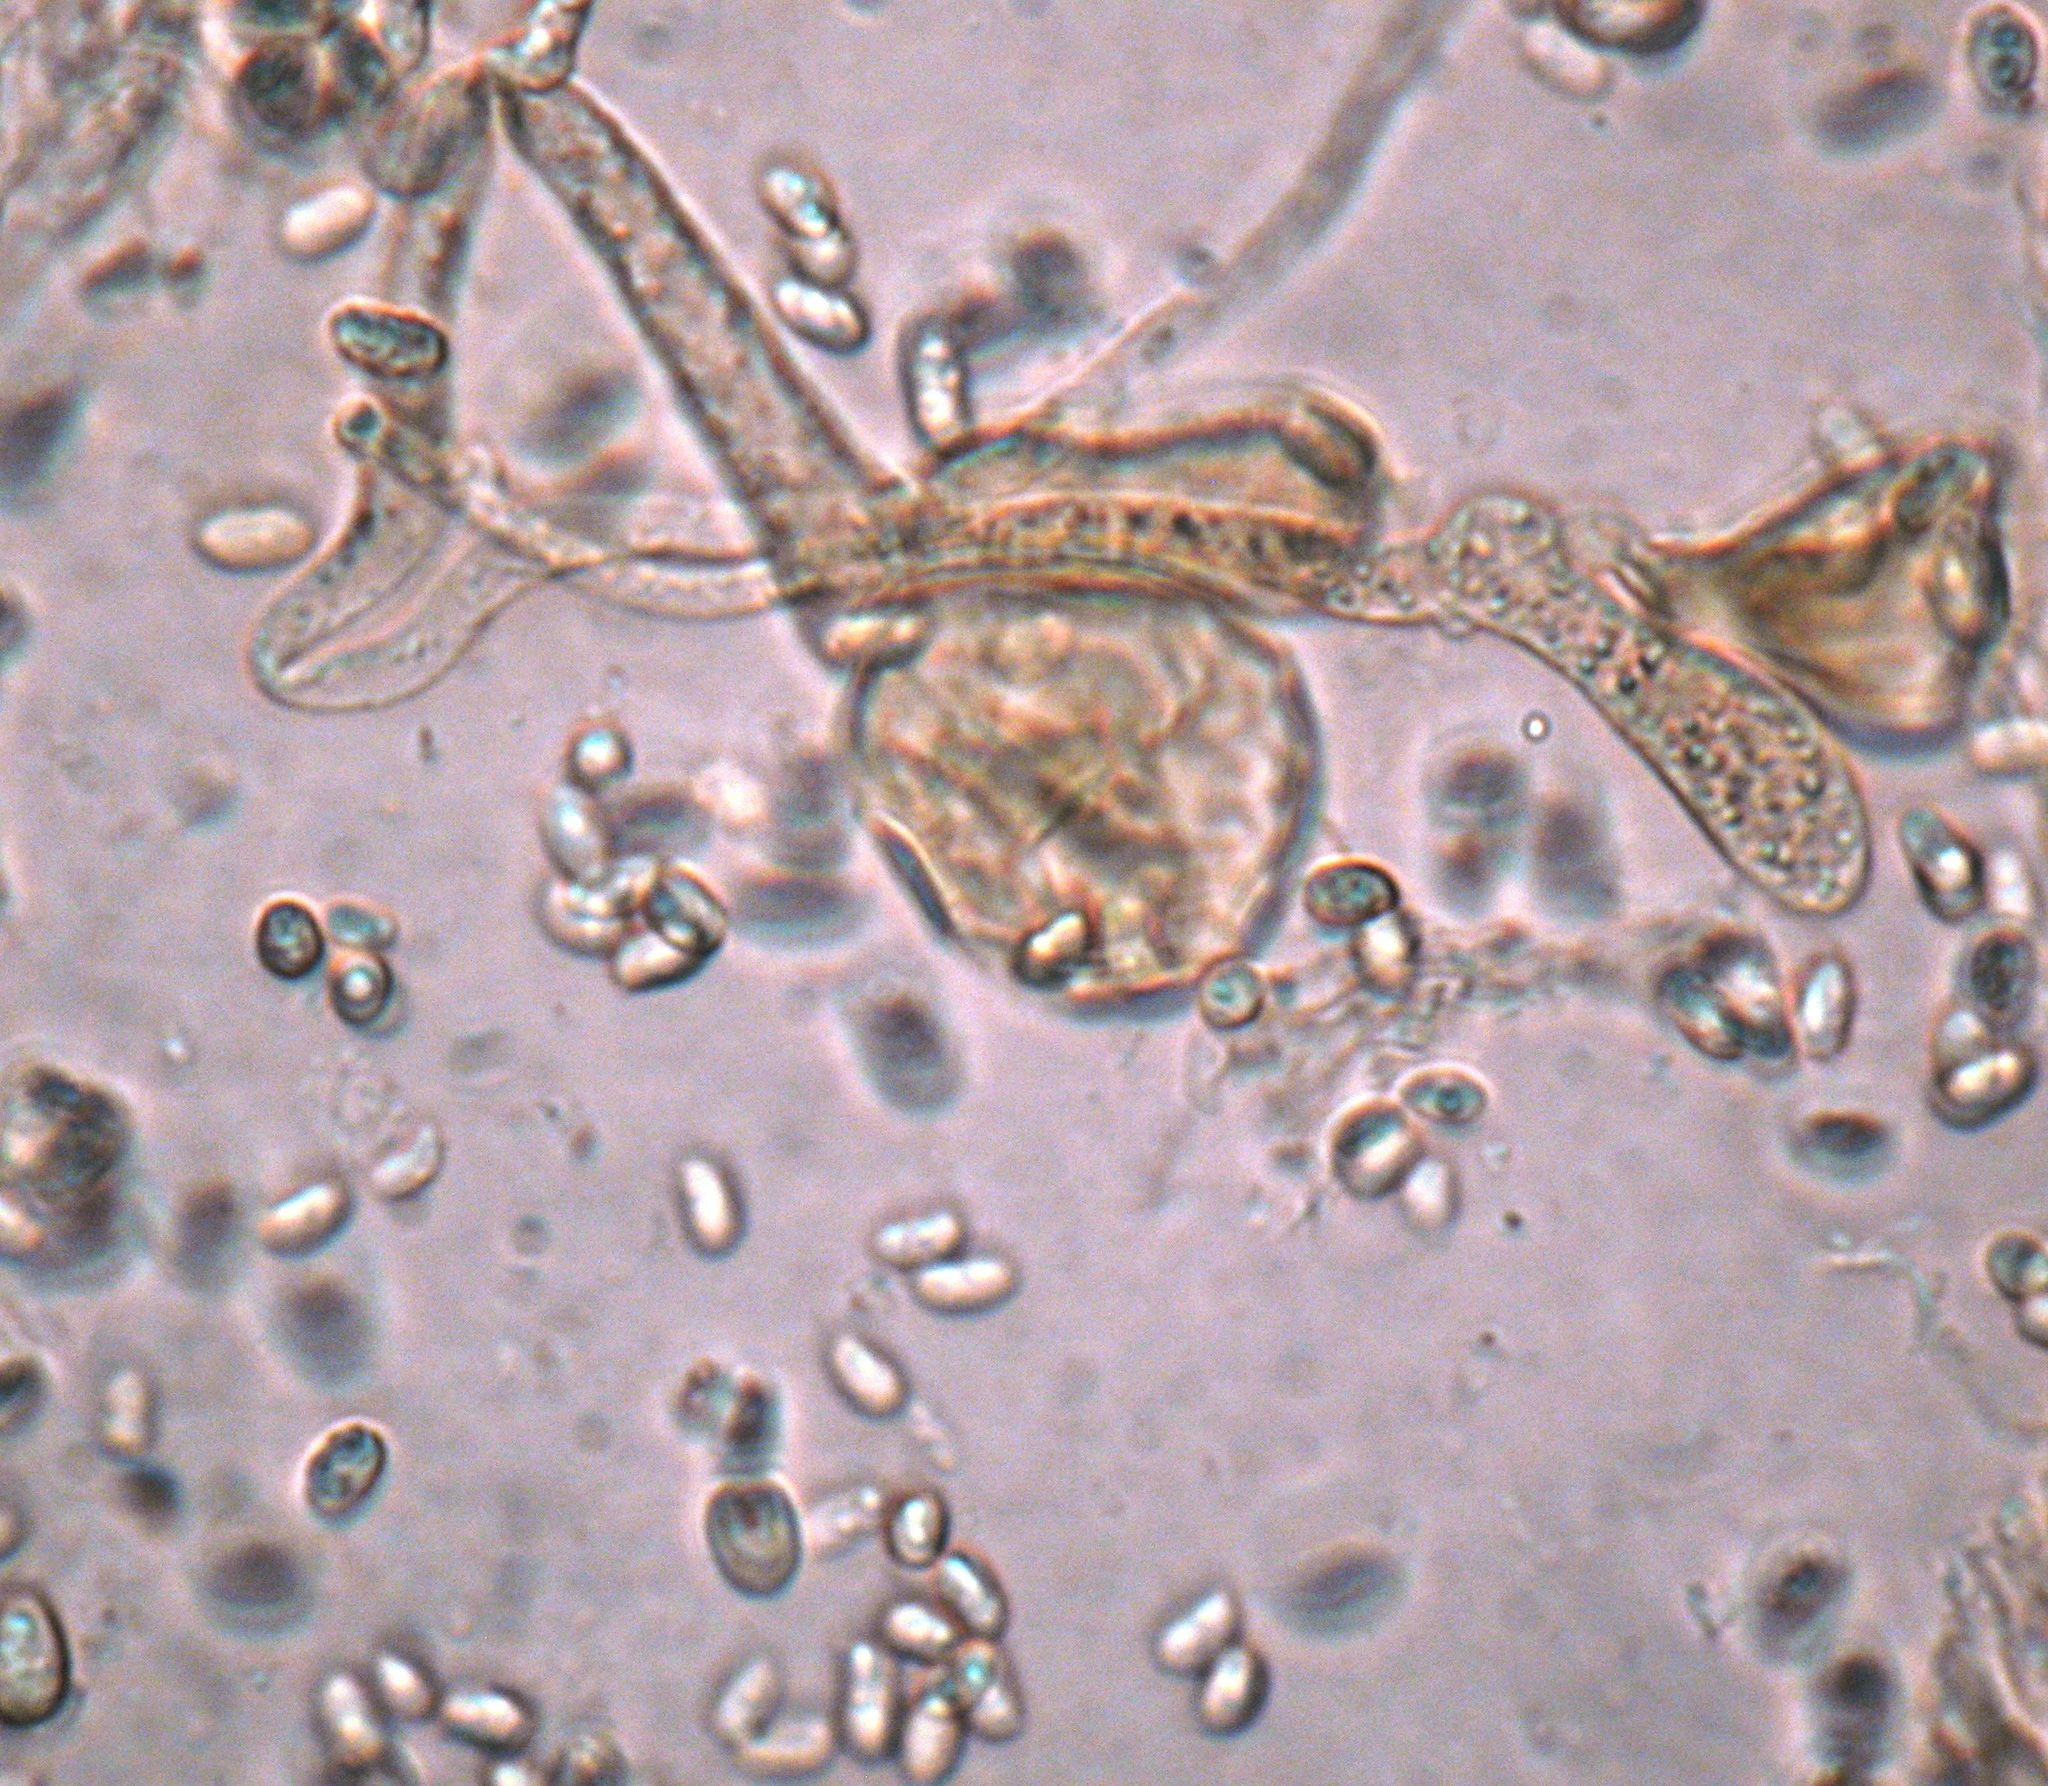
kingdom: Fungi
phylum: Basidiomycota
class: Agaricomycetes
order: Agaricales
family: Tricholomataceae
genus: Tricholomopsis
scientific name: Tricholomopsis scabra
